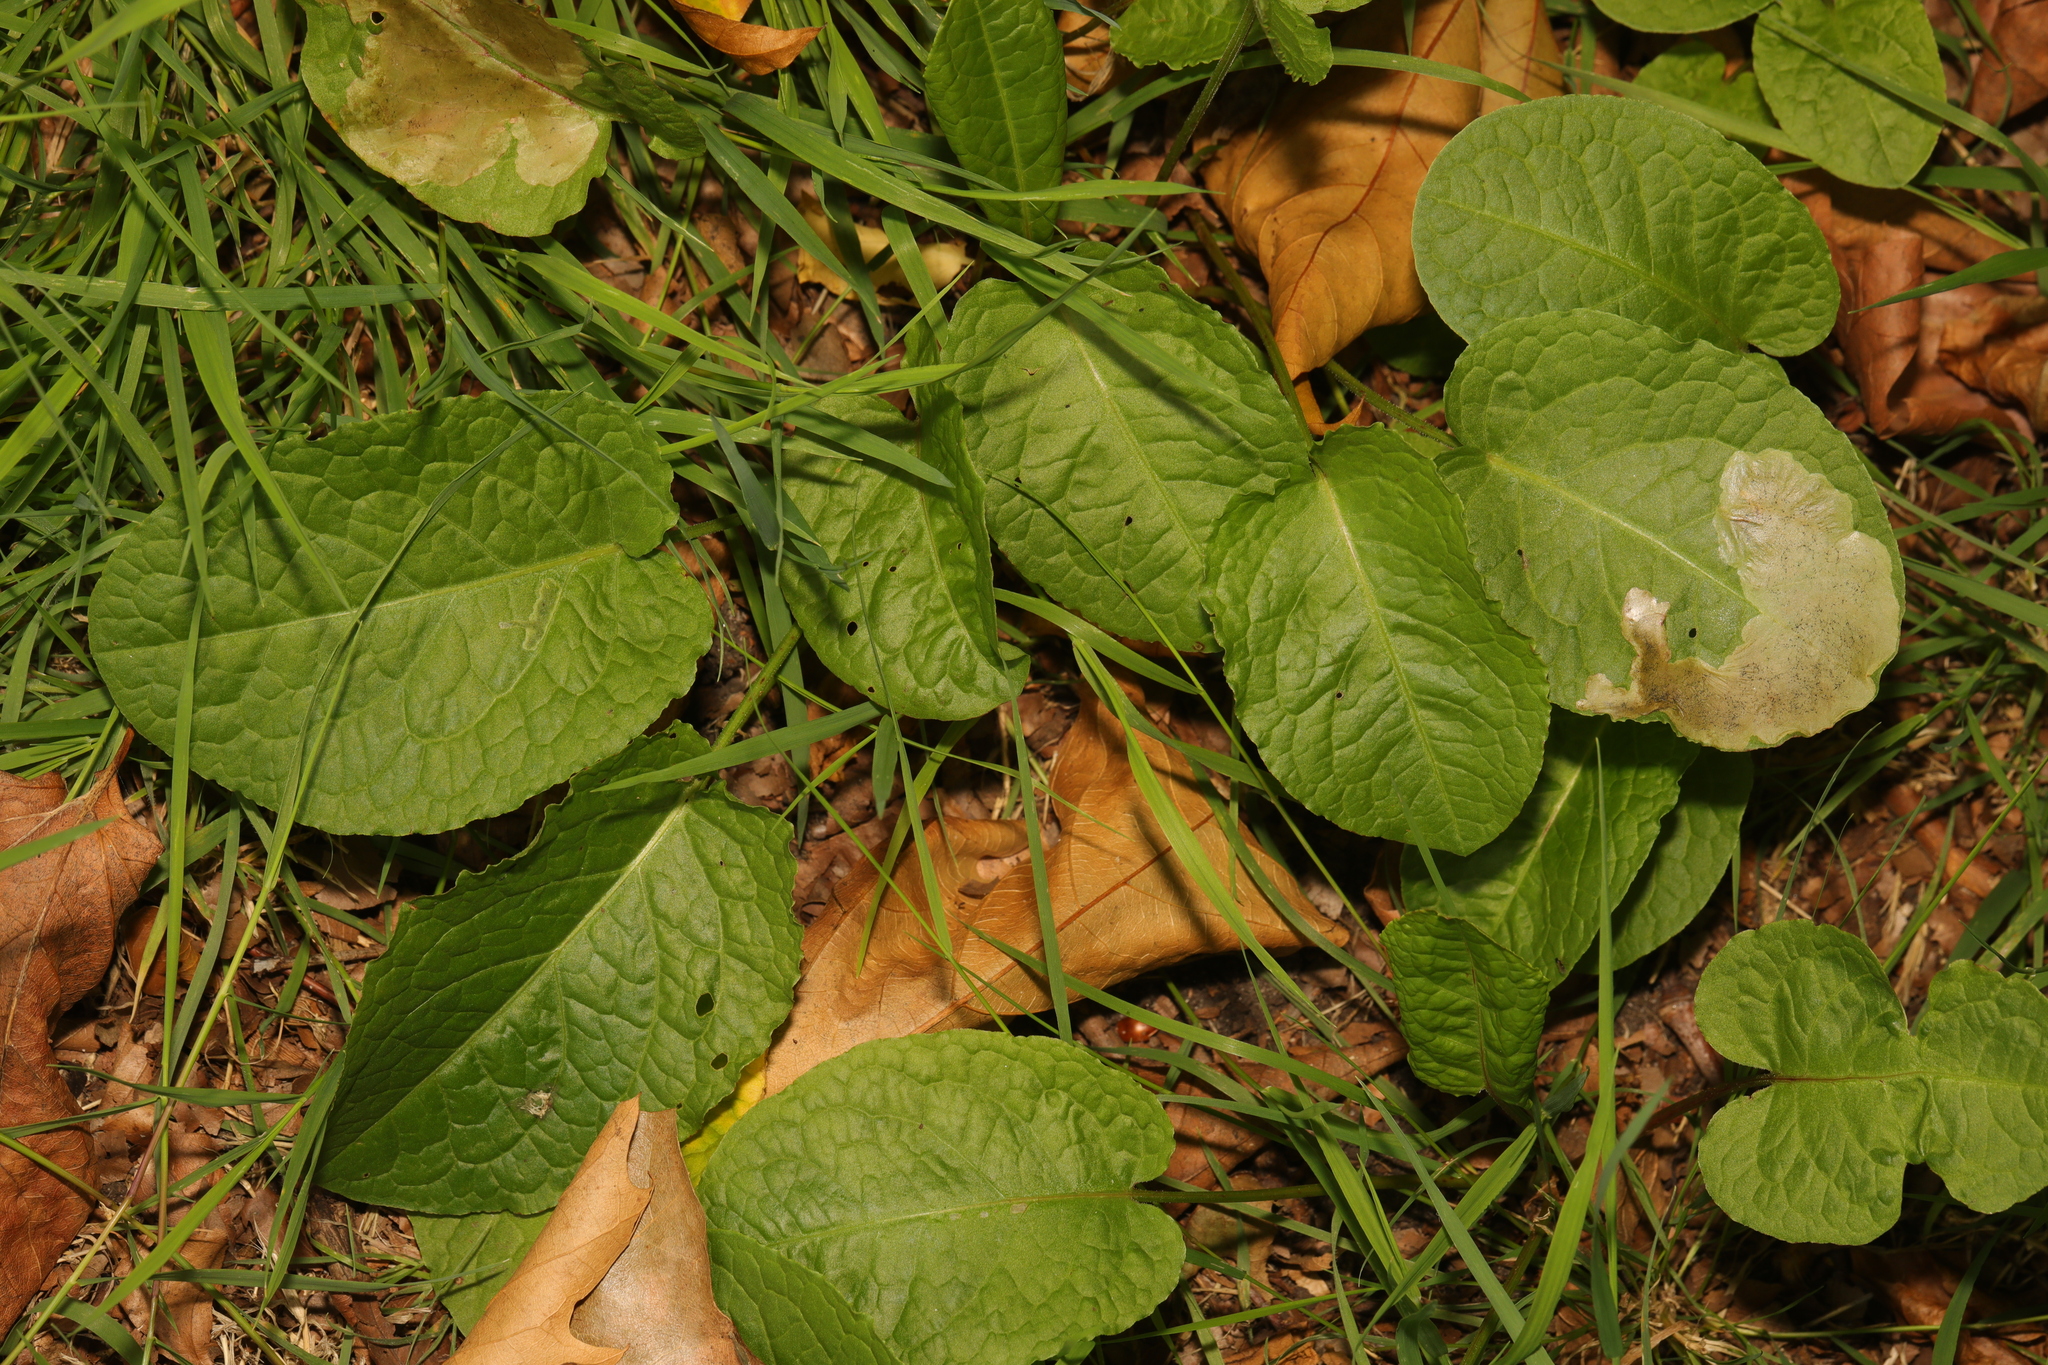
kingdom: Plantae
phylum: Tracheophyta
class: Magnoliopsida
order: Caryophyllales
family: Polygonaceae
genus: Rumex
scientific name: Rumex obtusifolius
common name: Bitter dock
